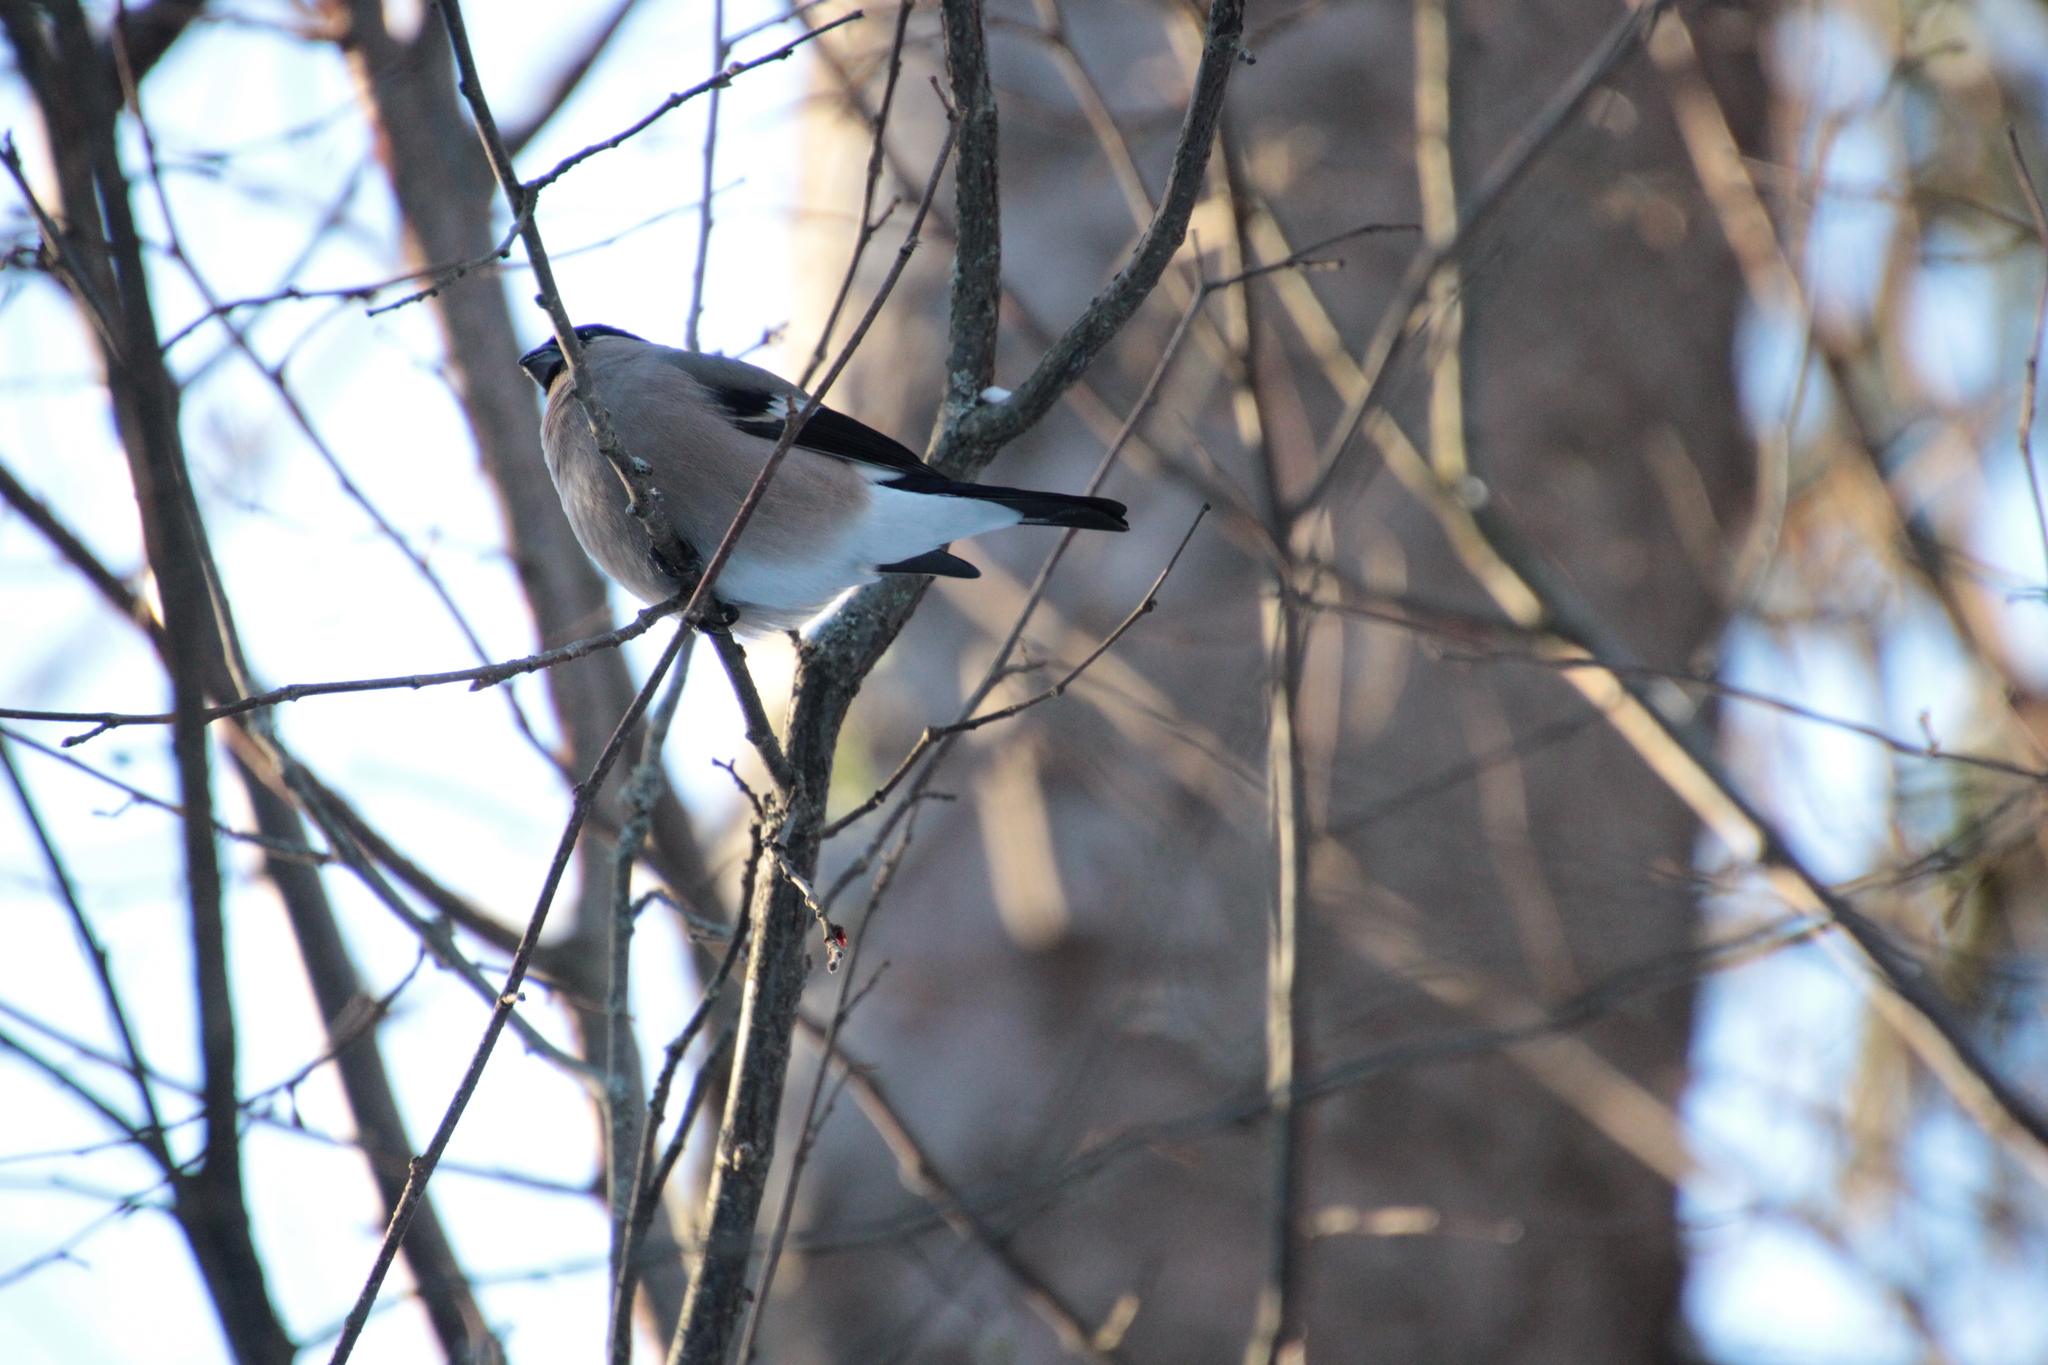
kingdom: Animalia
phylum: Chordata
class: Aves
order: Passeriformes
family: Fringillidae
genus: Pyrrhula
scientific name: Pyrrhula pyrrhula
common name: Eurasian bullfinch
